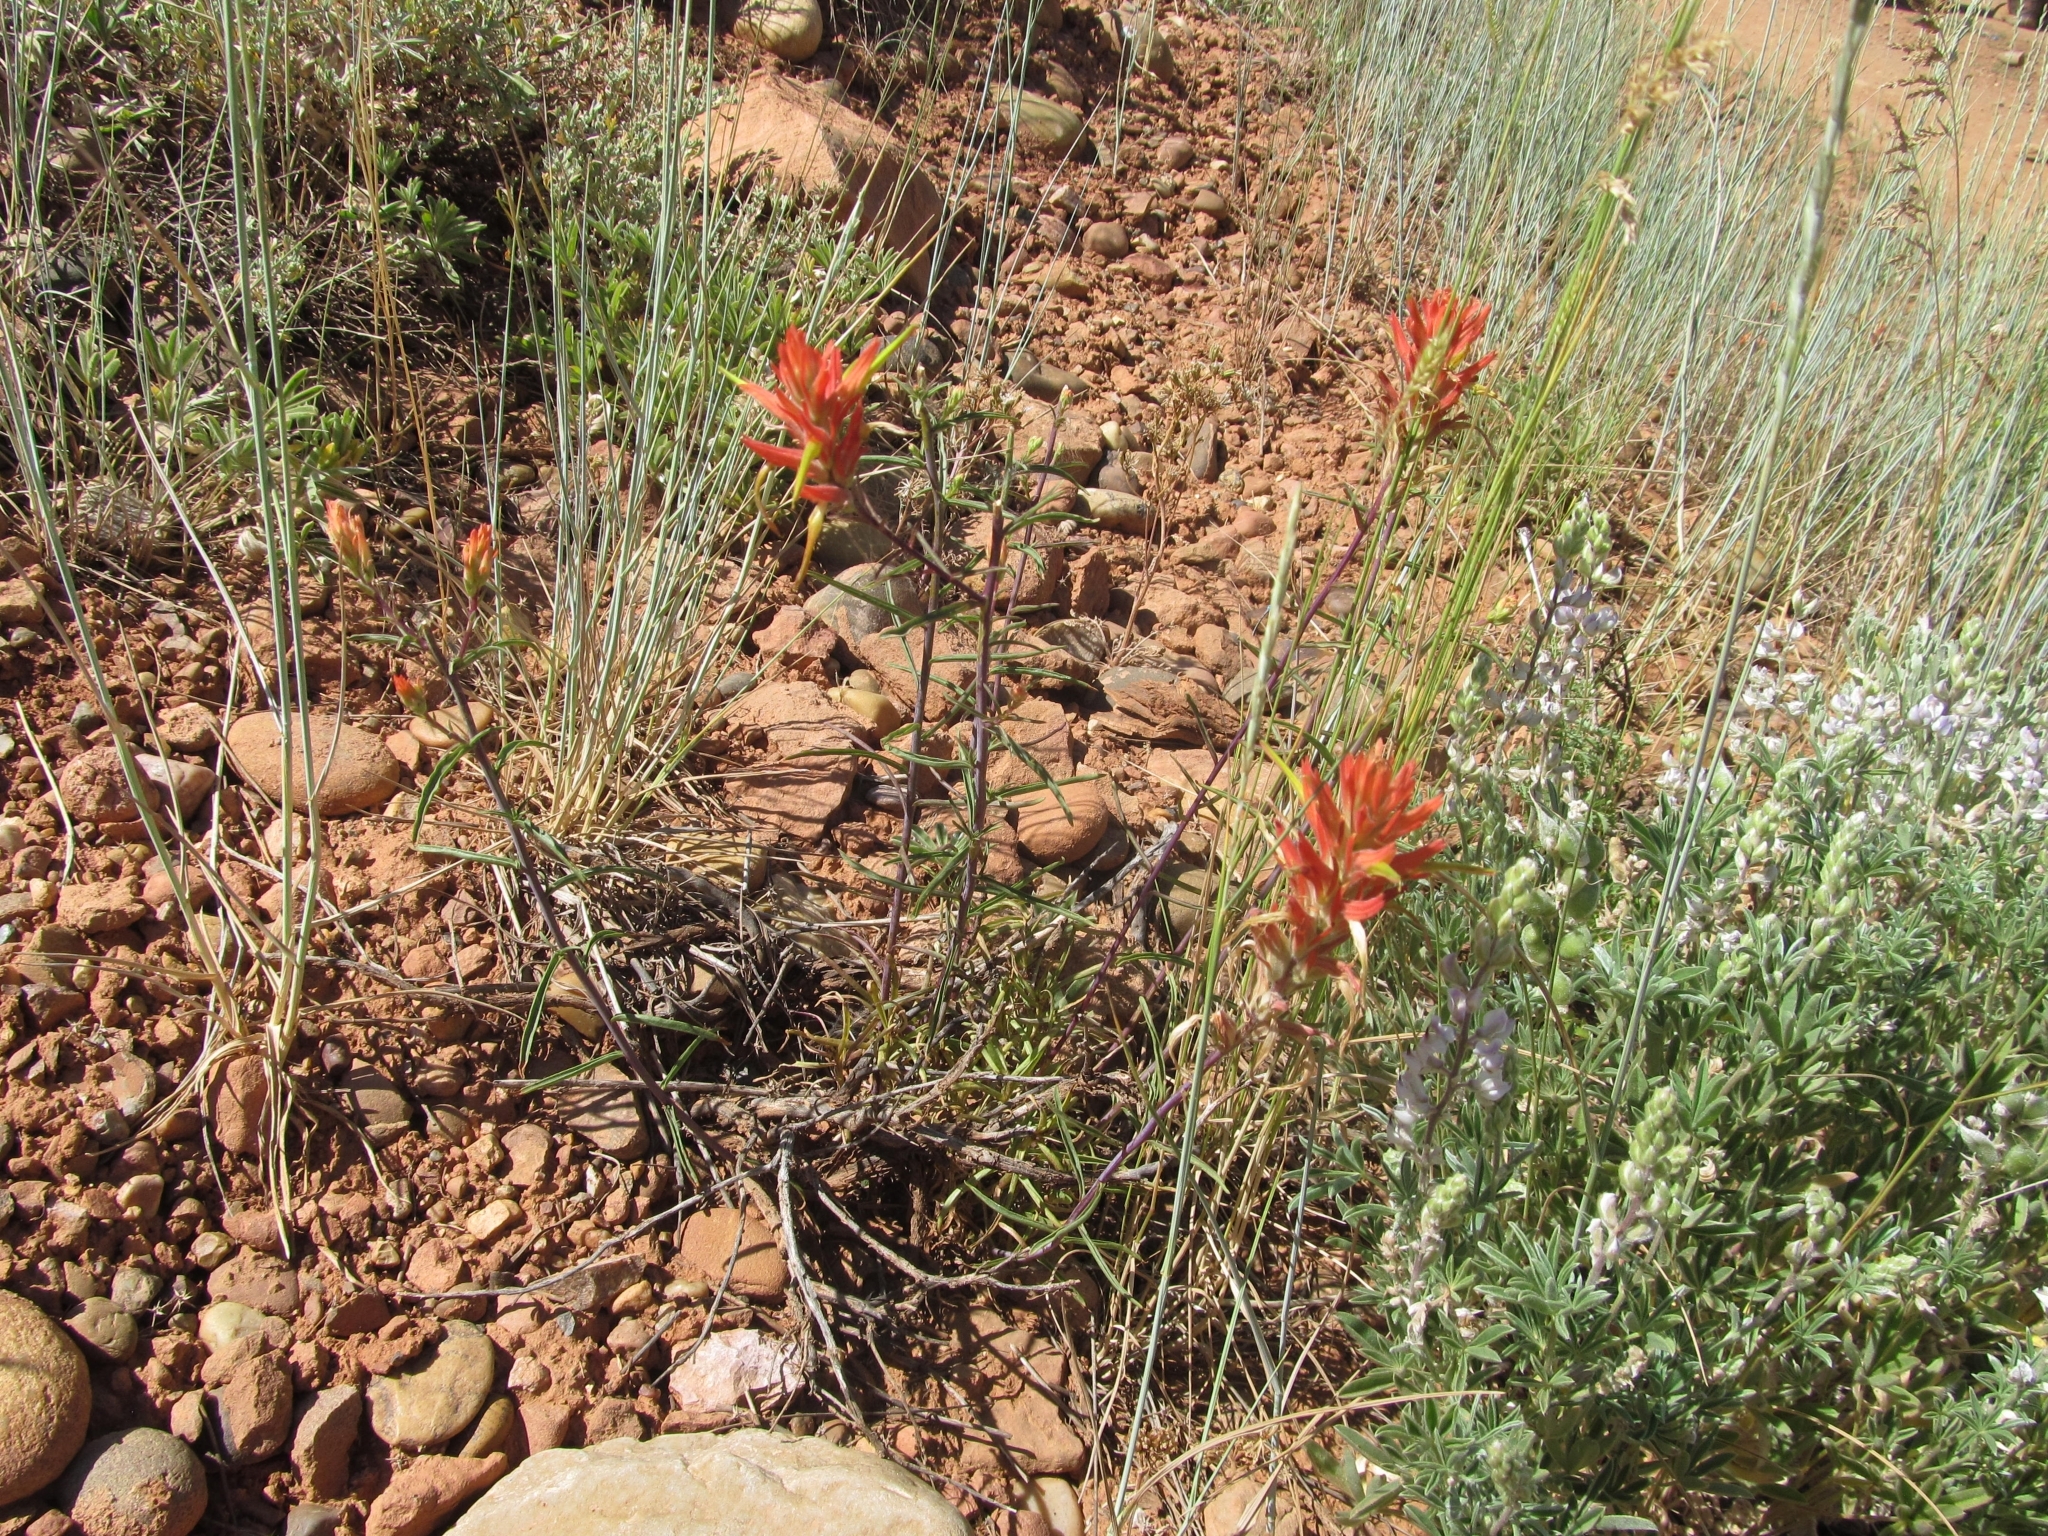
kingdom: Plantae
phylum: Tracheophyta
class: Magnoliopsida
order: Lamiales
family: Orobanchaceae
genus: Castilleja
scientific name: Castilleja linariifolia
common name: Wyoming paintbrush
